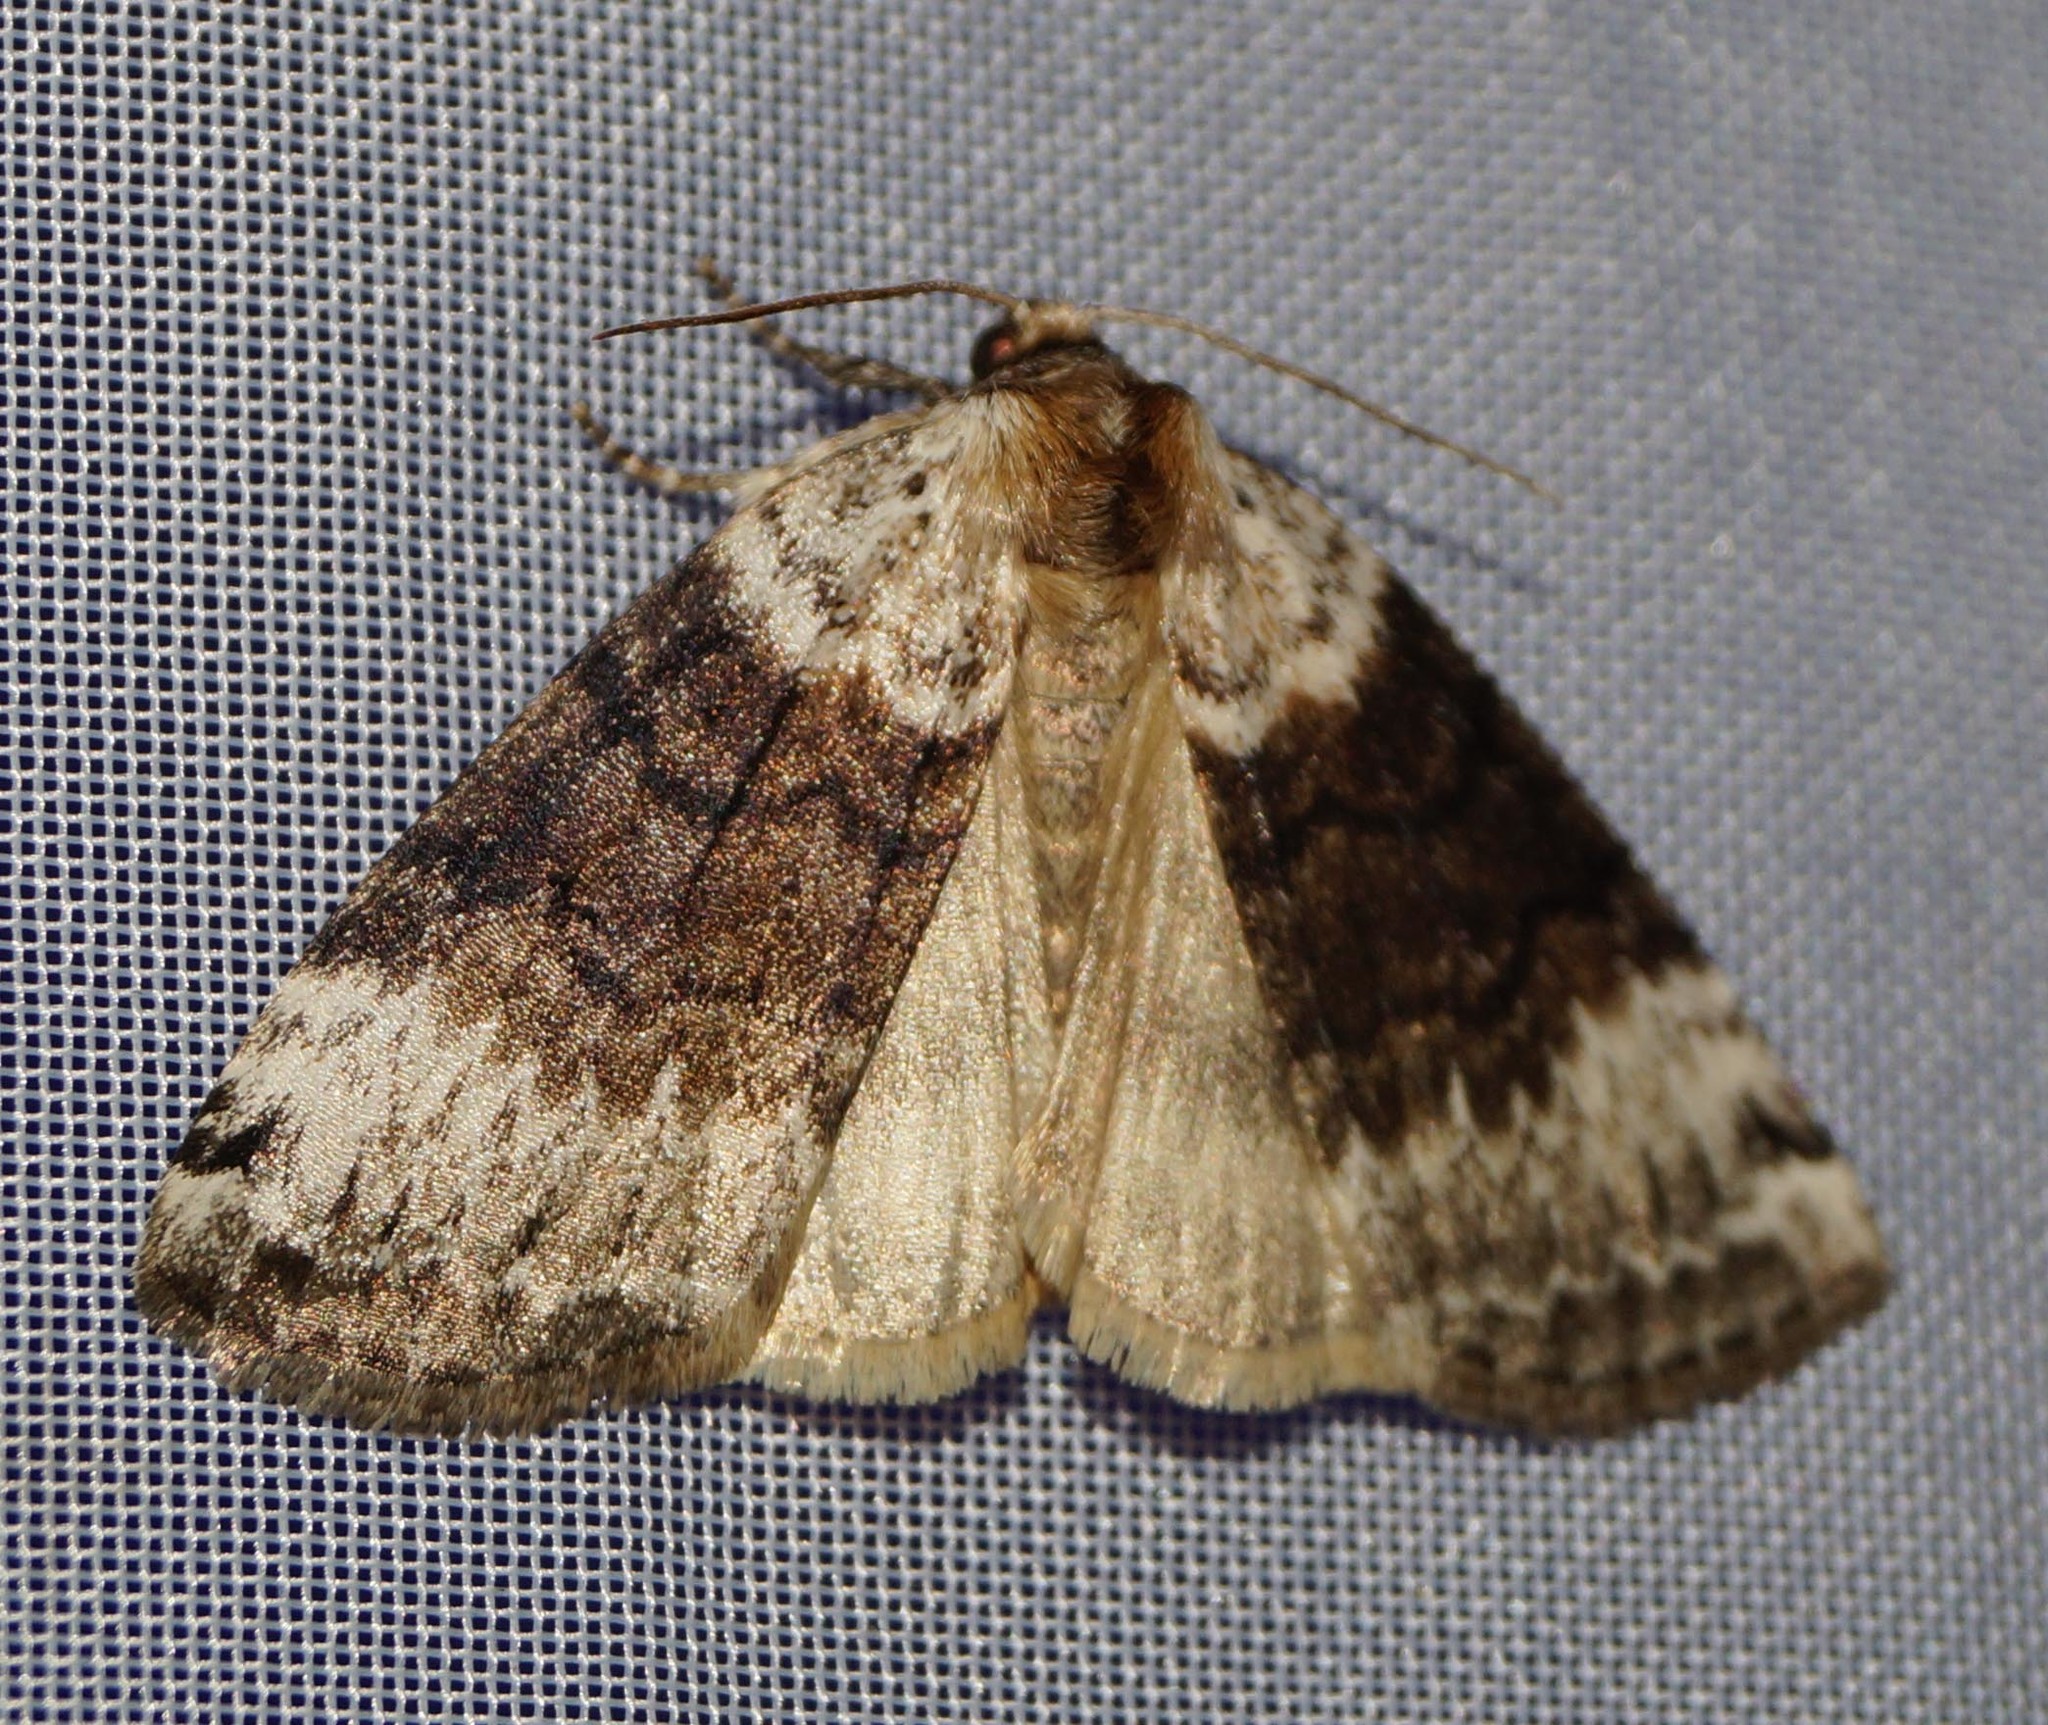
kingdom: Animalia
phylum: Arthropoda
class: Insecta
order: Lepidoptera
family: Drepanidae
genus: Tetheella
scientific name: Tetheella fluctuosa
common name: Satin lutestring
